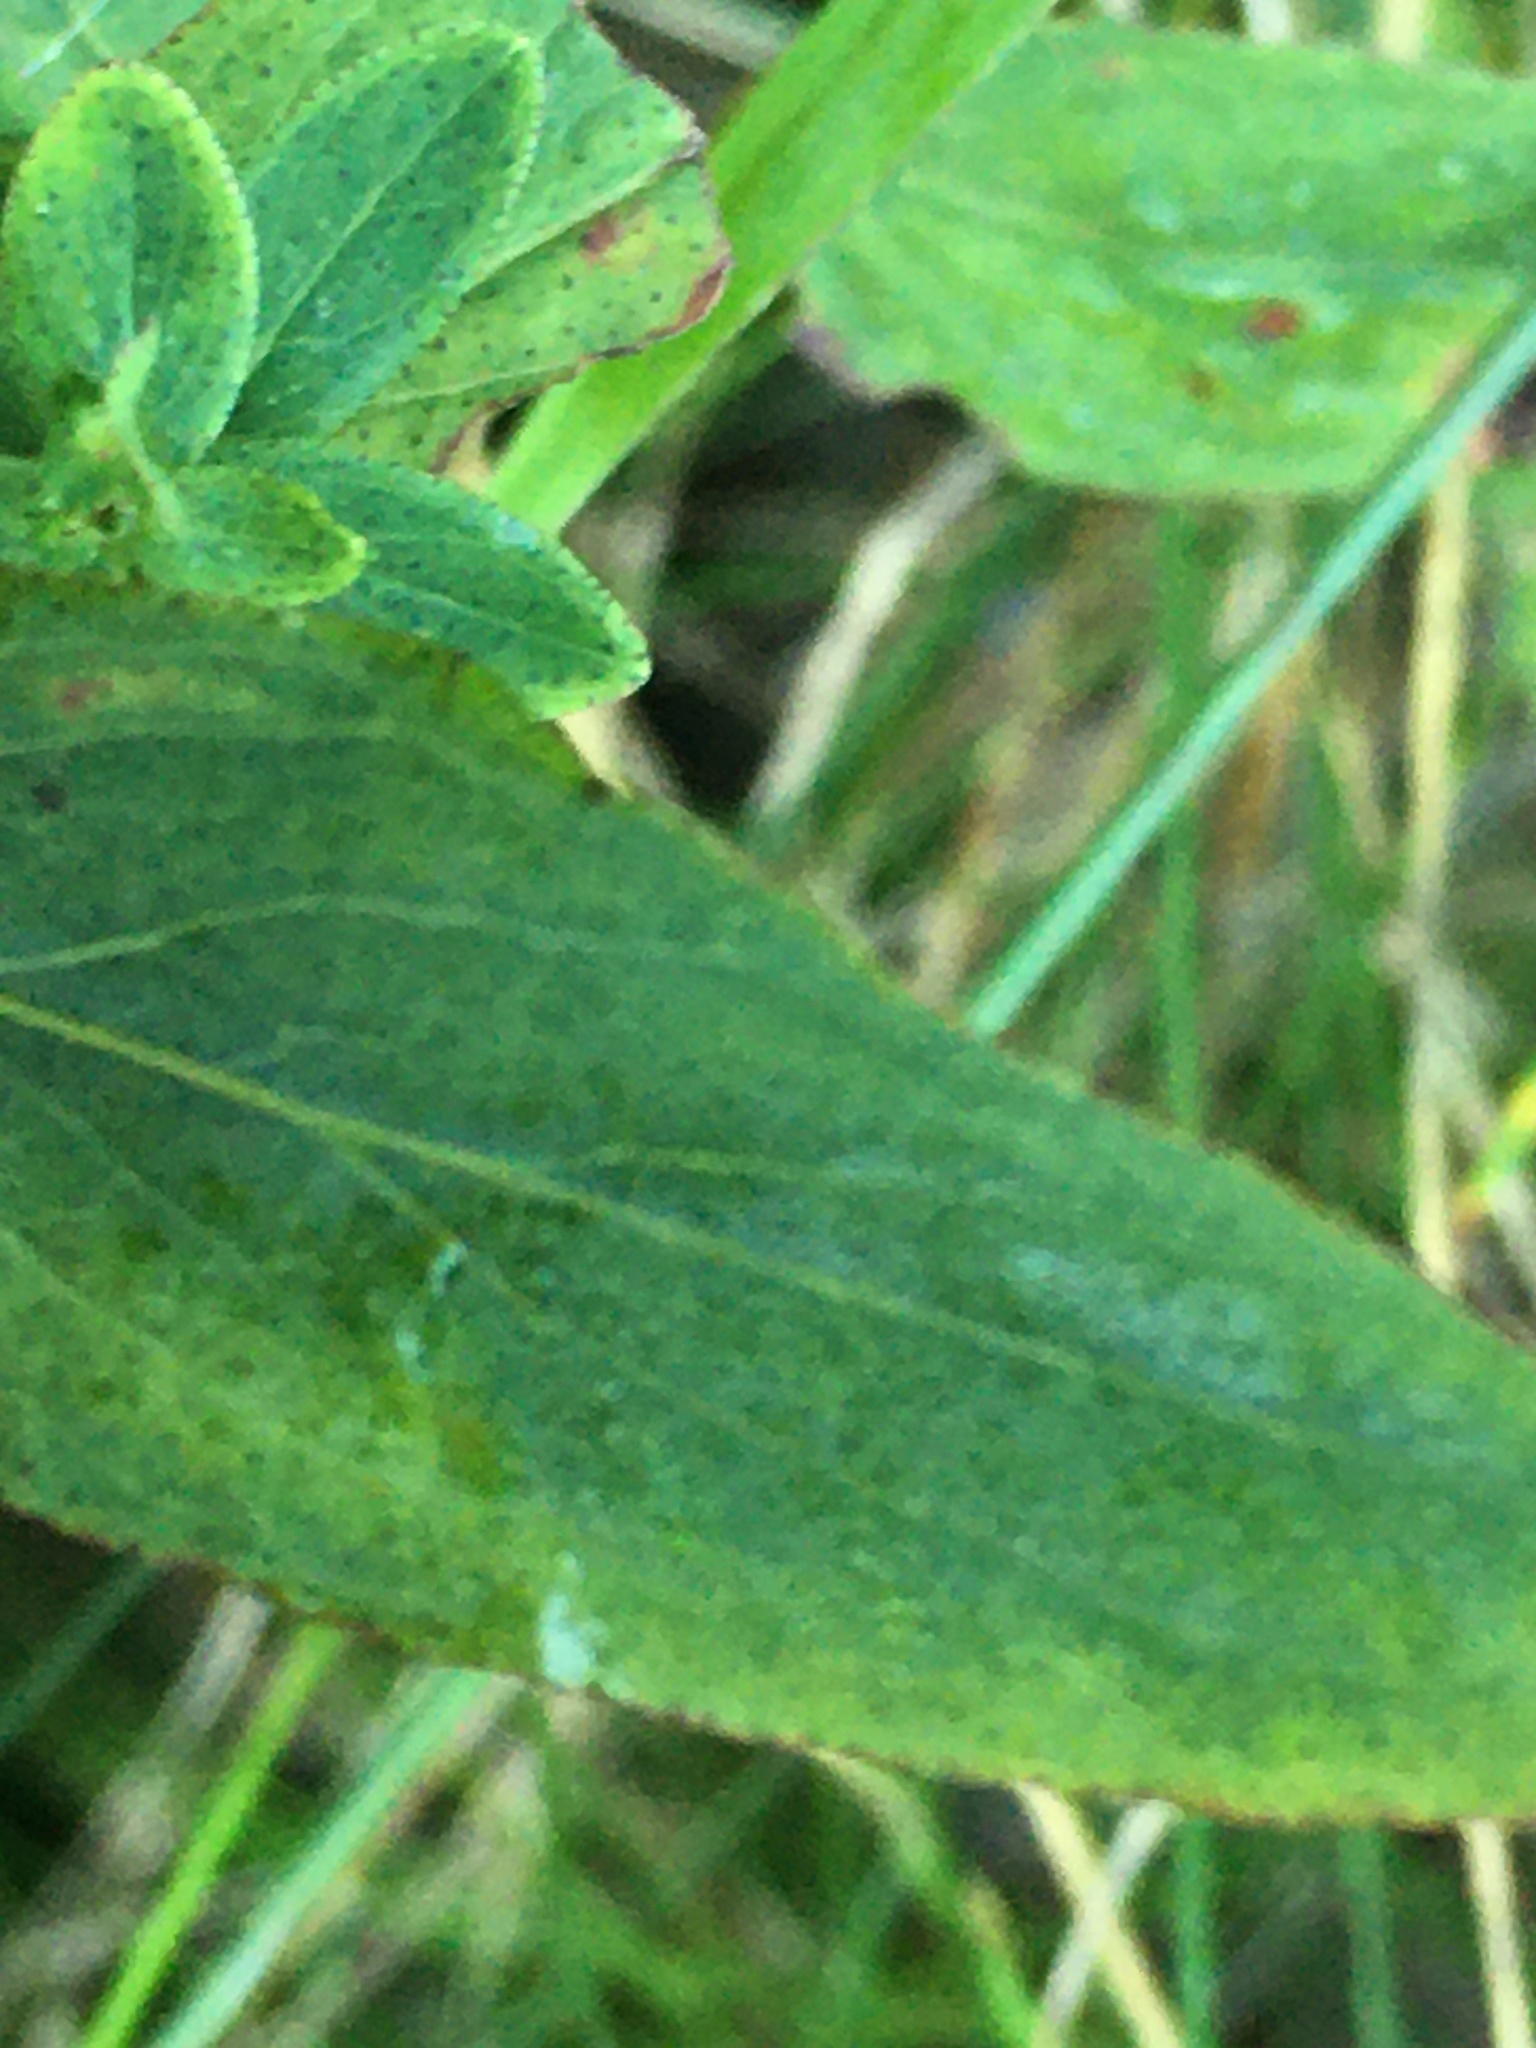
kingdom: Plantae
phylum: Tracheophyta
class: Magnoliopsida
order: Malpighiales
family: Hypericaceae
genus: Hypericum
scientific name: Hypericum punctatum
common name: Spotted st. john's-wort
